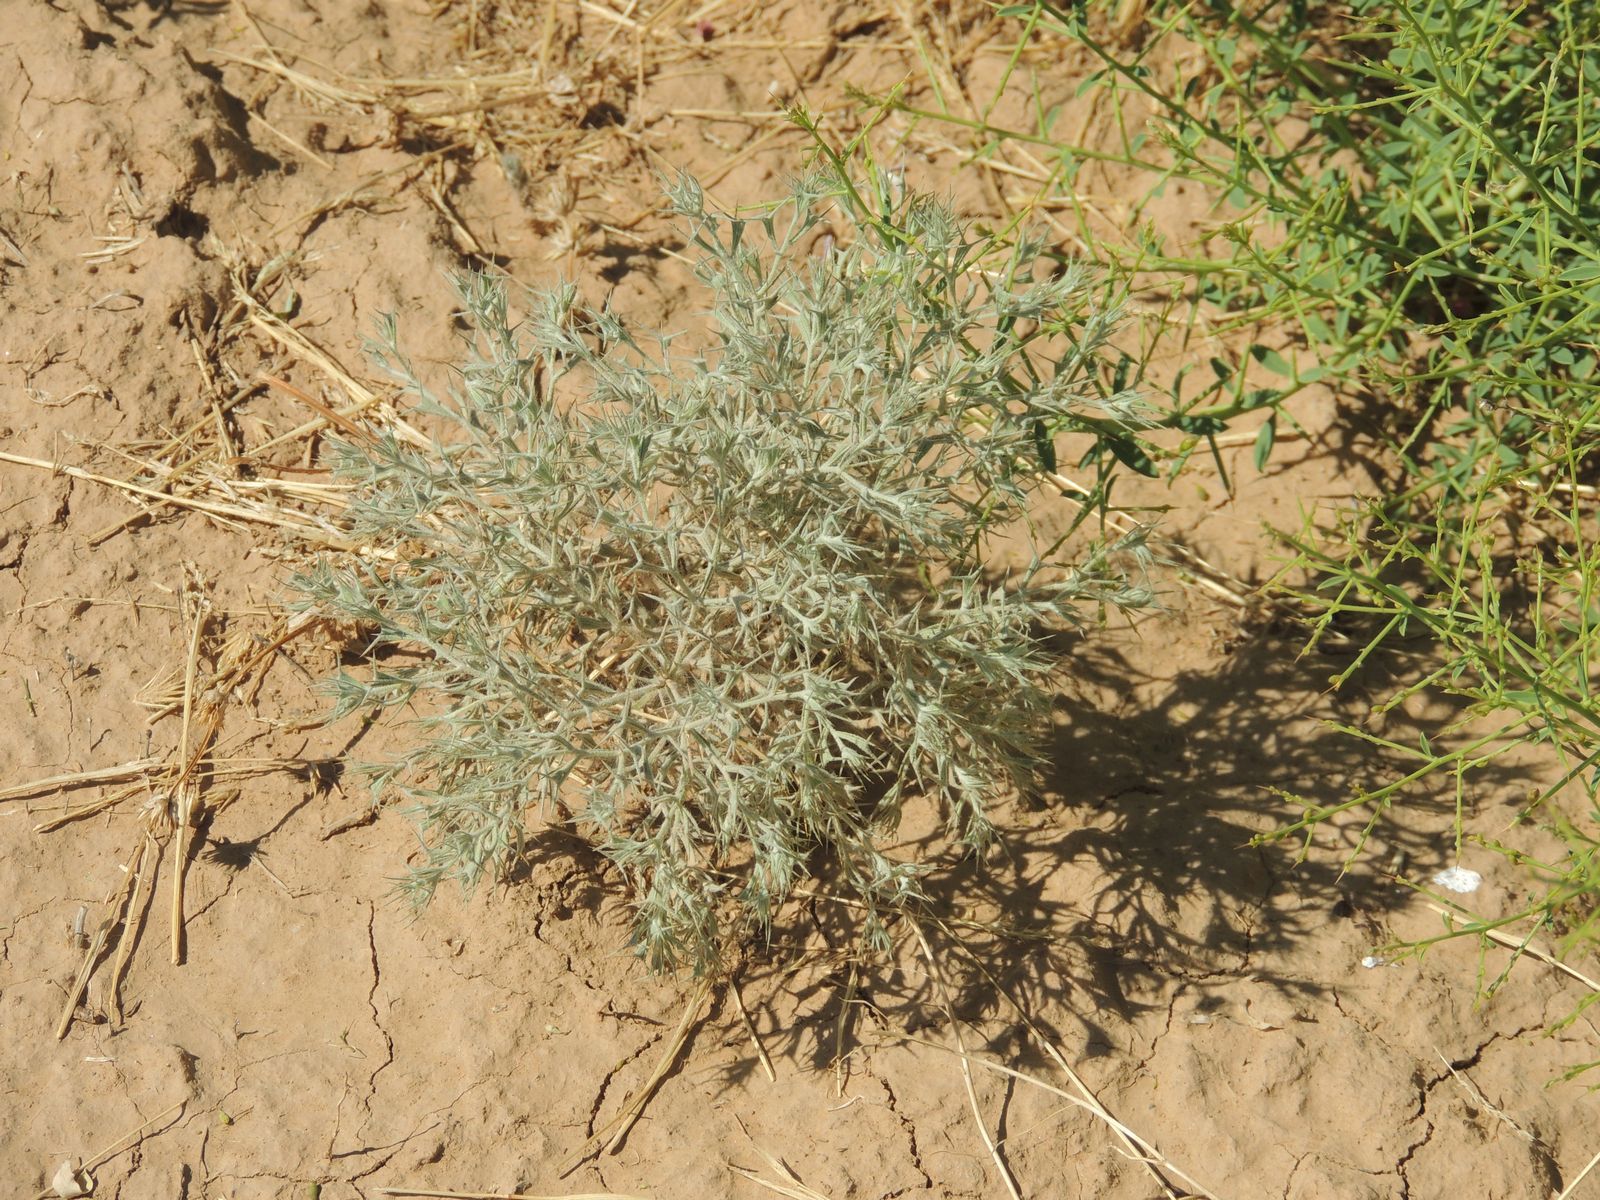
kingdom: Plantae
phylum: Tracheophyta
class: Magnoliopsida
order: Caryophyllales
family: Amaranthaceae
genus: Ceratocarpus
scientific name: Ceratocarpus arenarius
